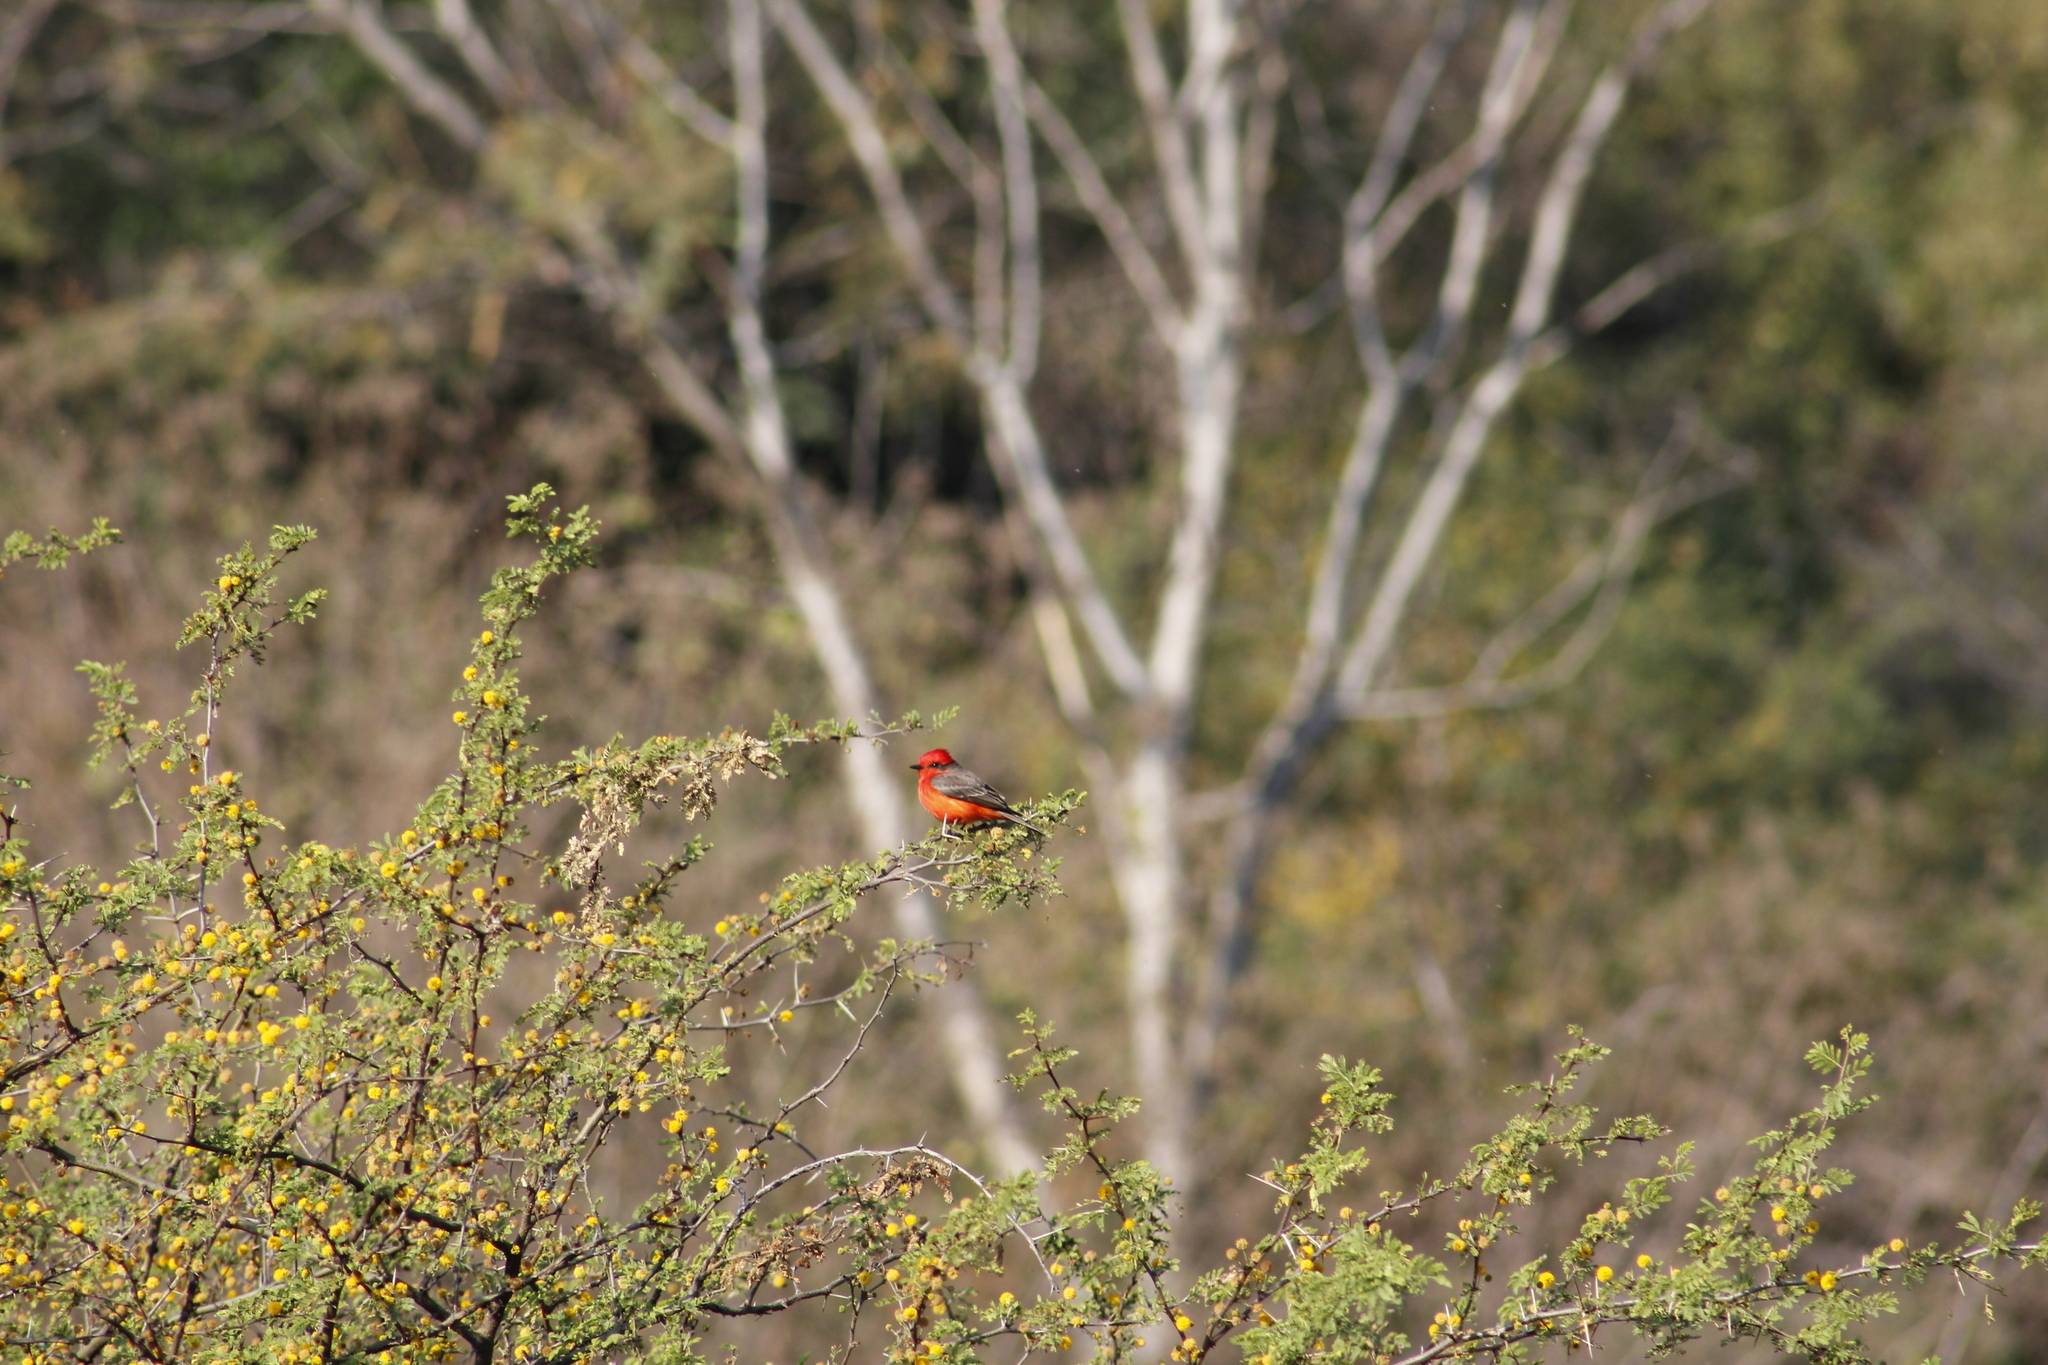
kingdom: Animalia
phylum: Chordata
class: Aves
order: Passeriformes
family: Tyrannidae
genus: Pyrocephalus
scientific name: Pyrocephalus rubinus
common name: Vermilion flycatcher
